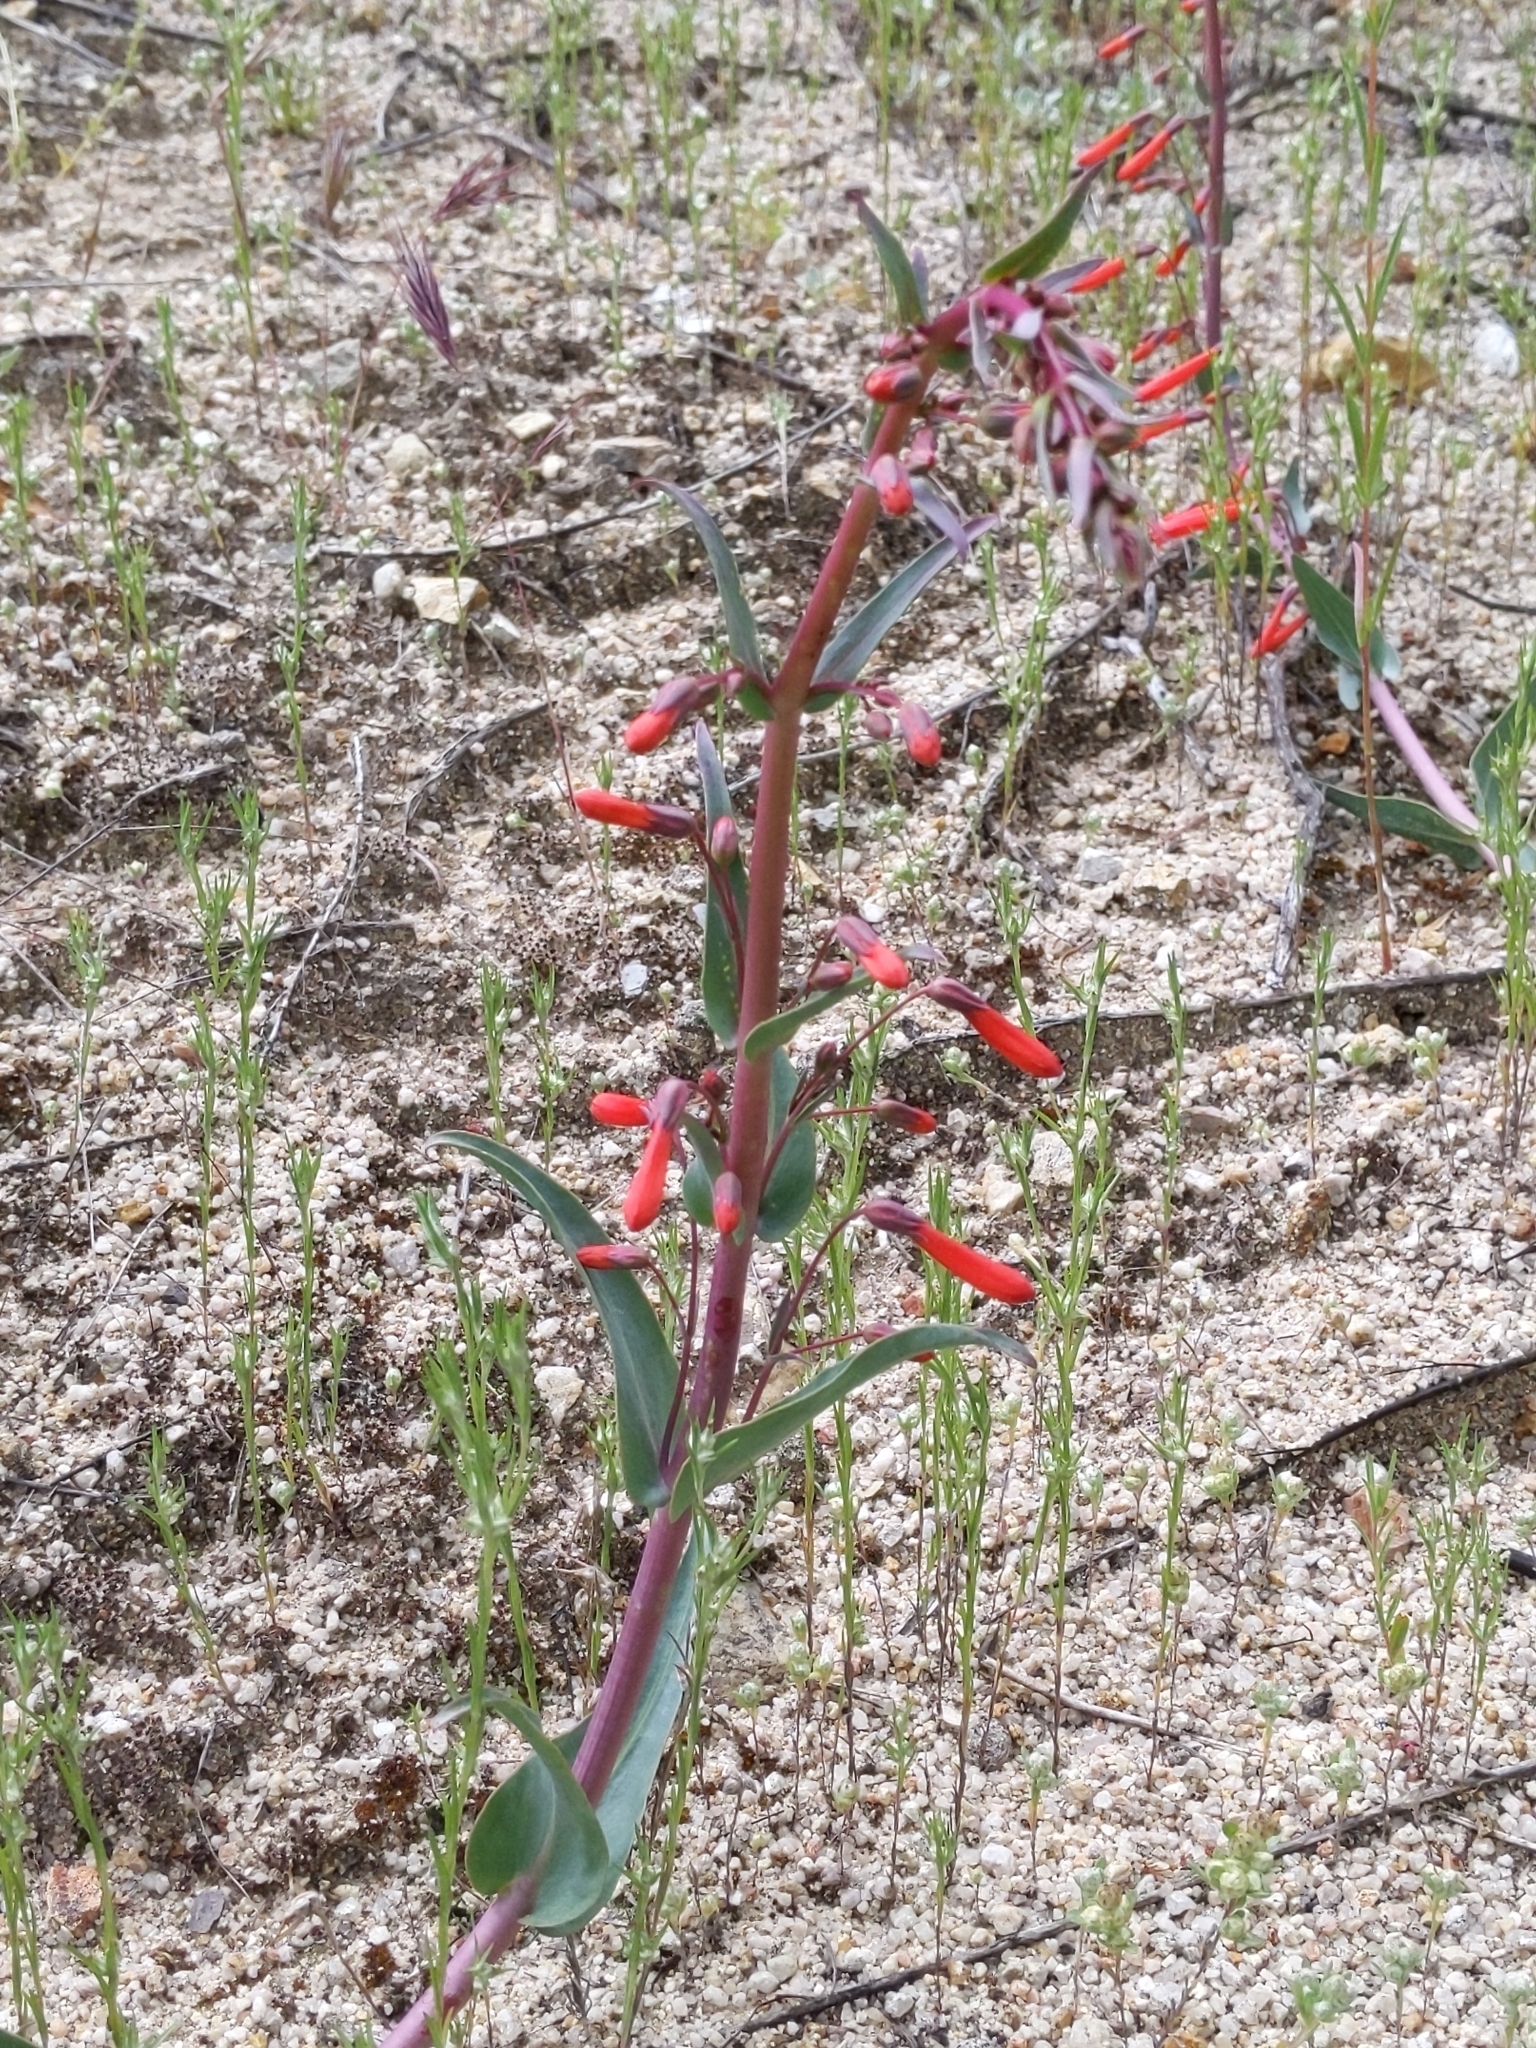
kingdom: Plantae
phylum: Tracheophyta
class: Magnoliopsida
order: Lamiales
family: Plantaginaceae
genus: Penstemon
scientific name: Penstemon centranthifolius
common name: Scarlet bugler
